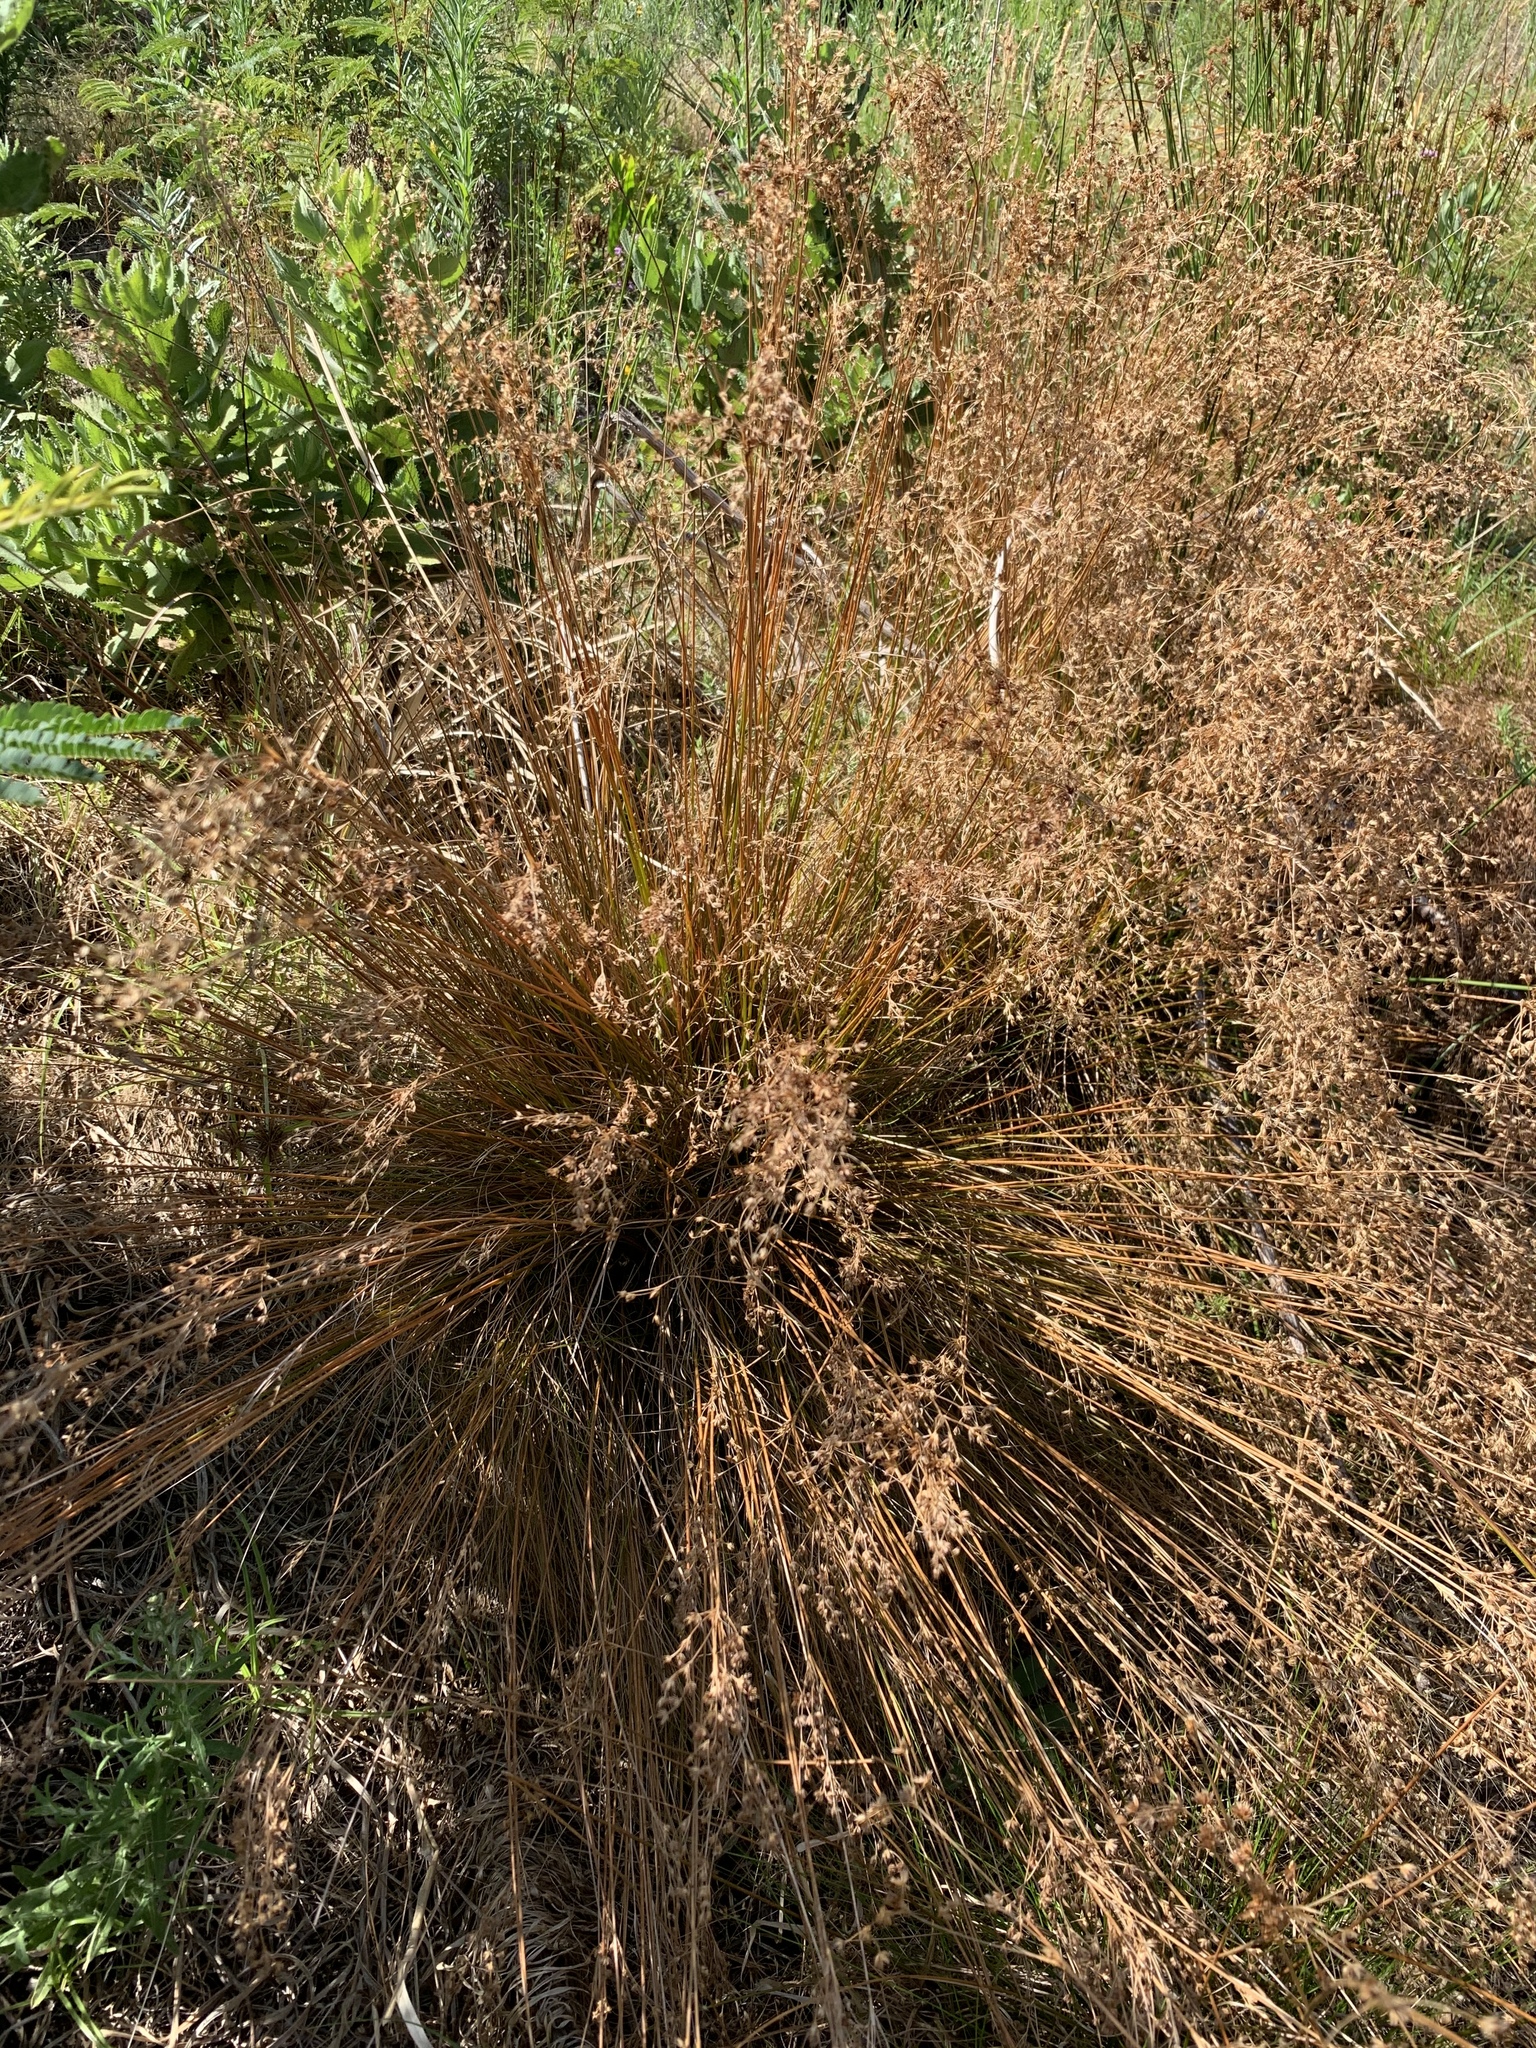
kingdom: Plantae
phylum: Tracheophyta
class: Liliopsida
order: Poales
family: Juncaceae
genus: Juncus
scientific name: Juncus capensis
